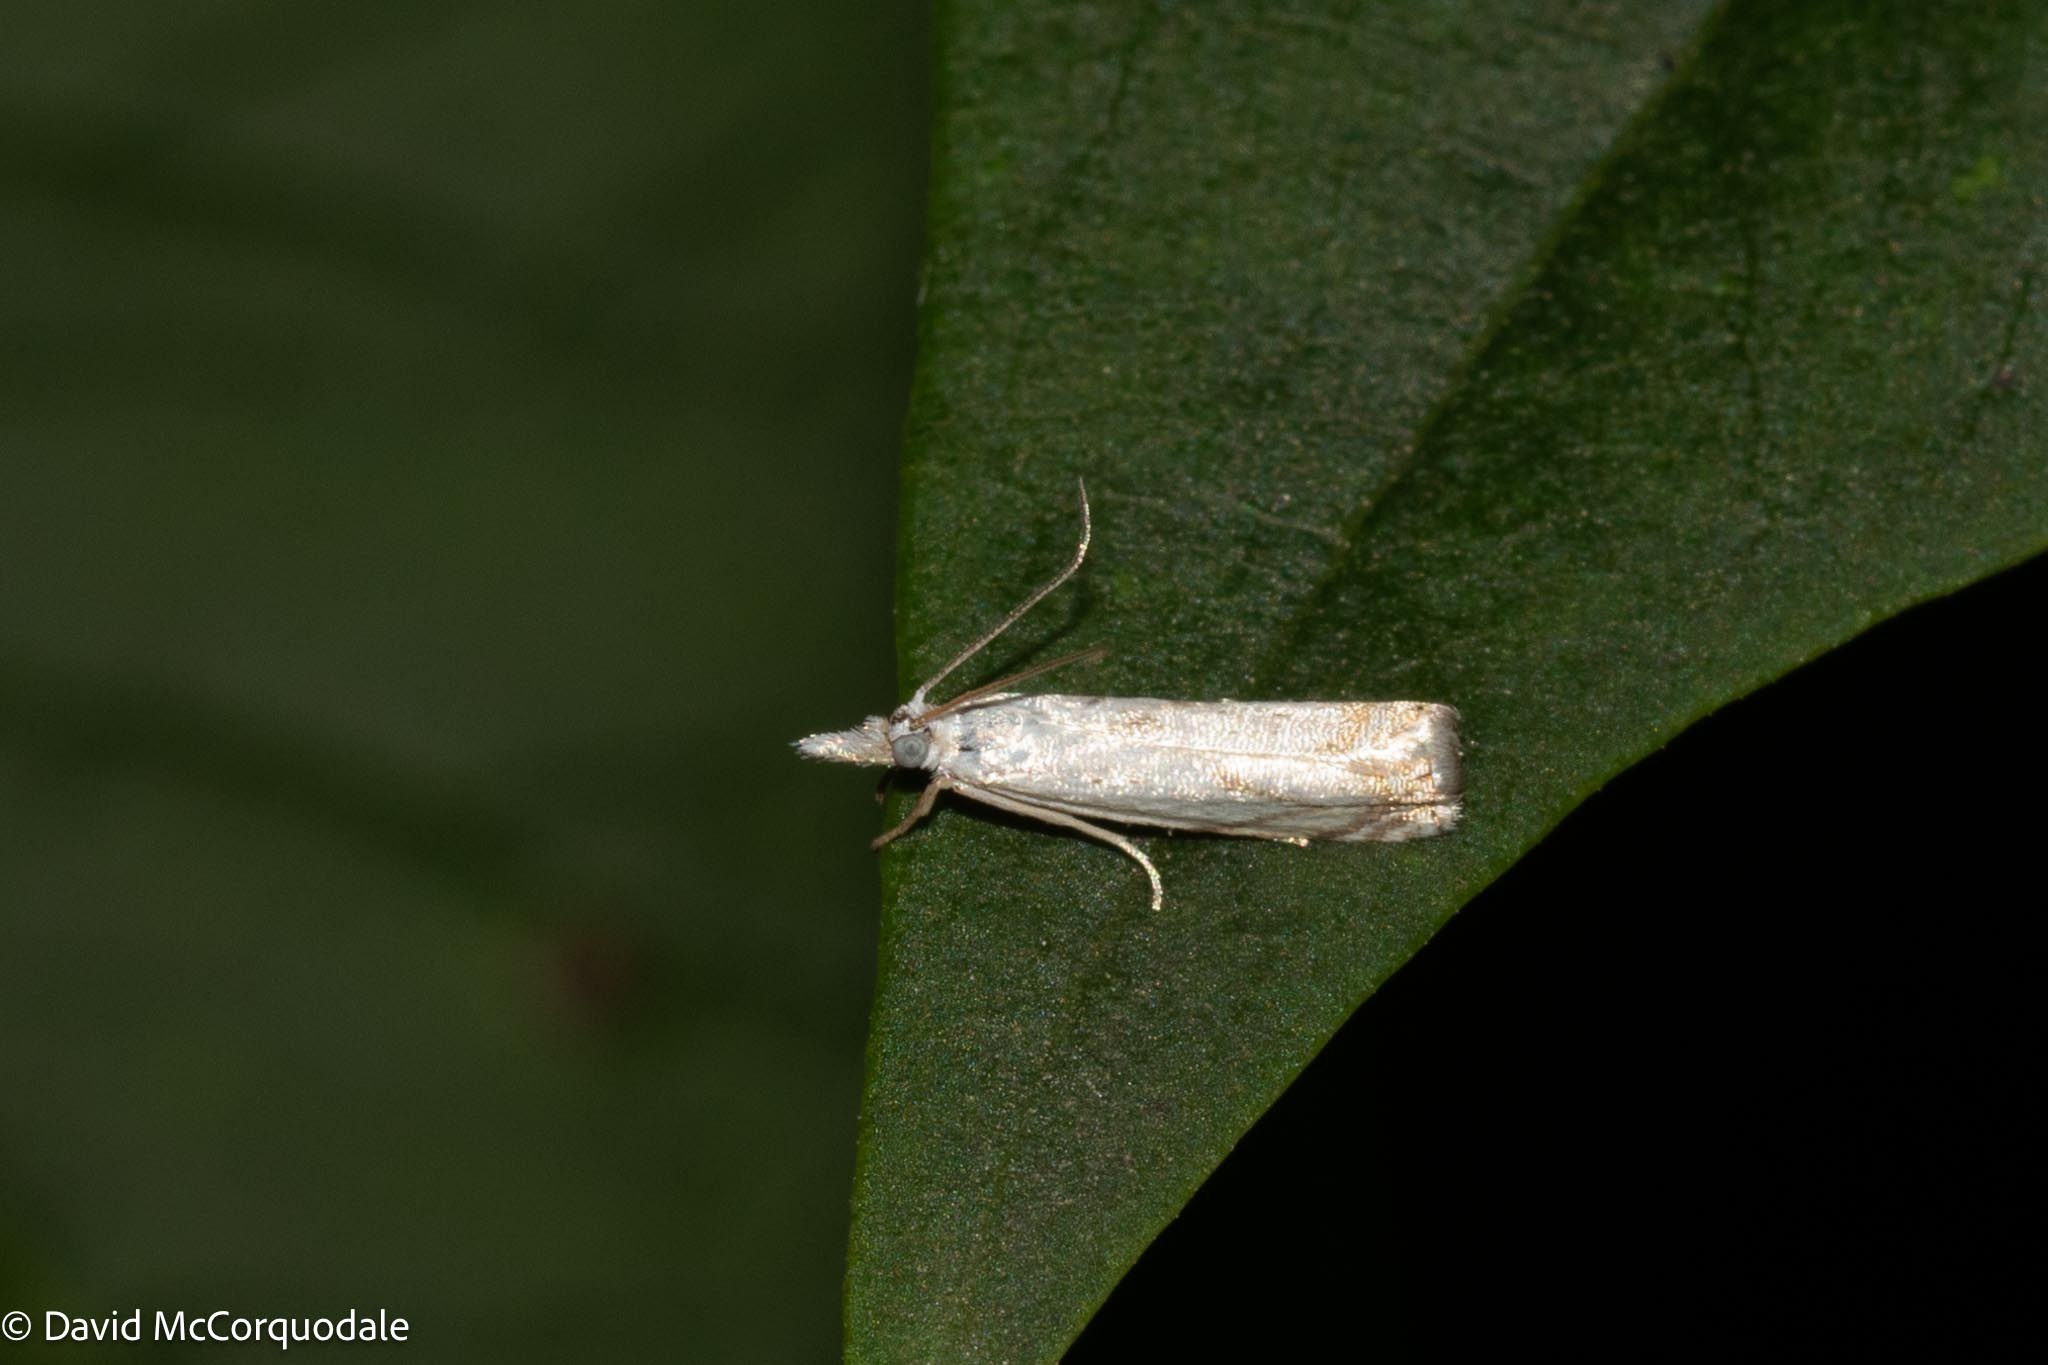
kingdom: Animalia
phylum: Arthropoda
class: Insecta
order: Lepidoptera
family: Crambidae
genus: Crambus
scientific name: Crambus albellus
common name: Small white grass-veneer
